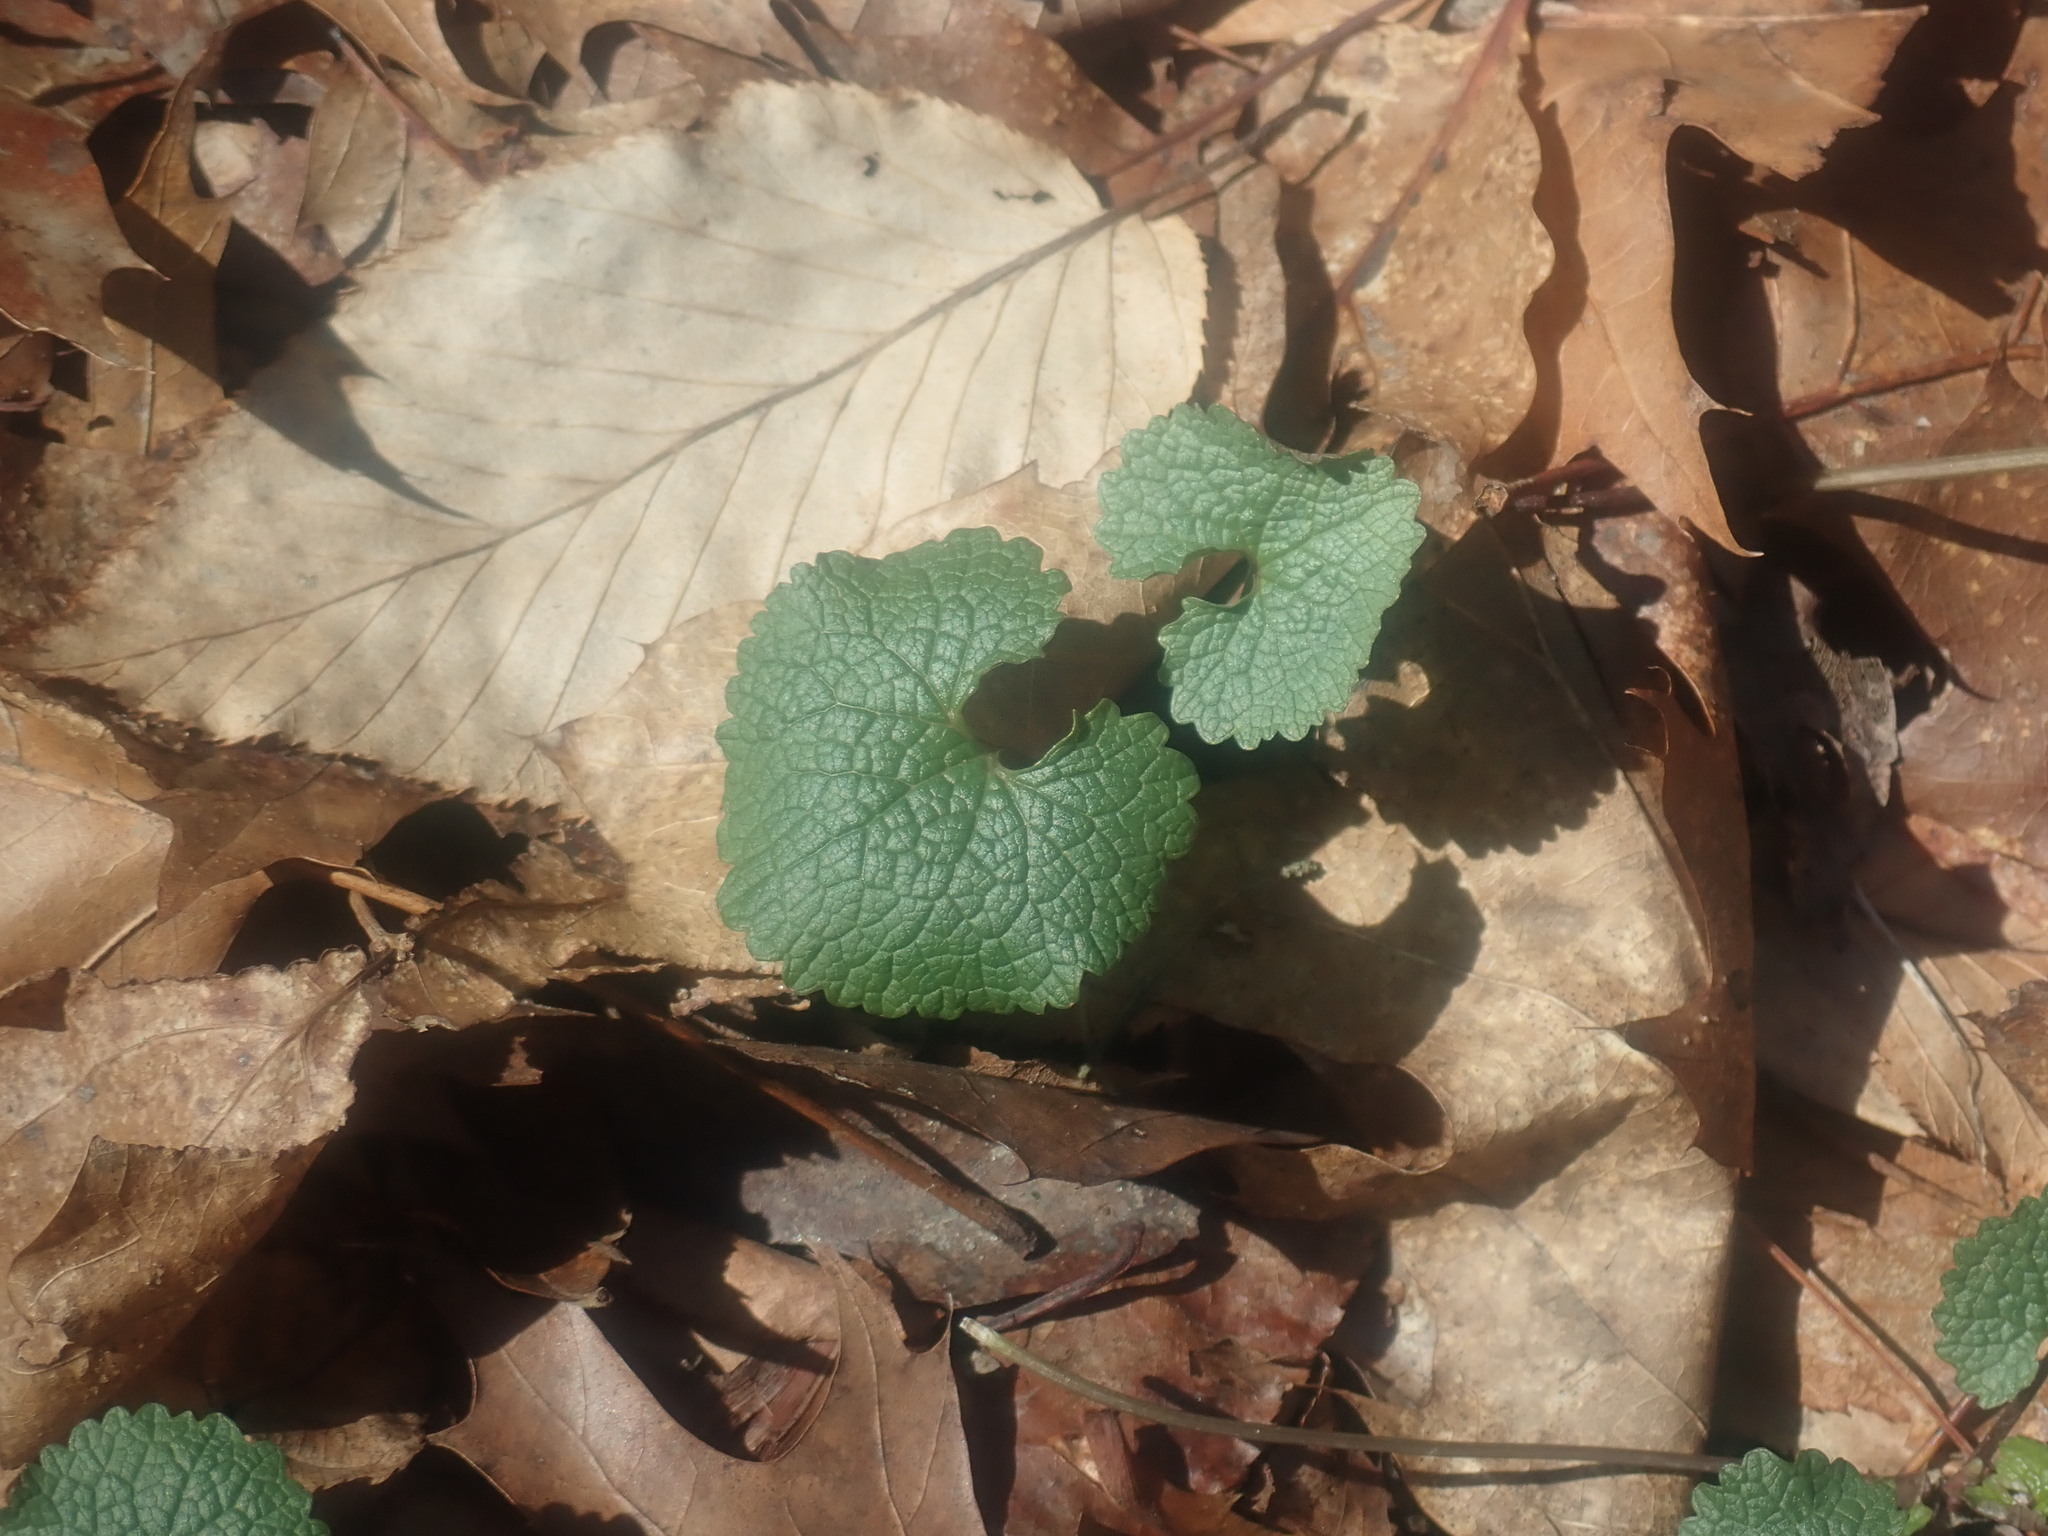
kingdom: Plantae
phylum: Tracheophyta
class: Magnoliopsida
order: Brassicales
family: Brassicaceae
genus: Alliaria
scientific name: Alliaria petiolata
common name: Garlic mustard
